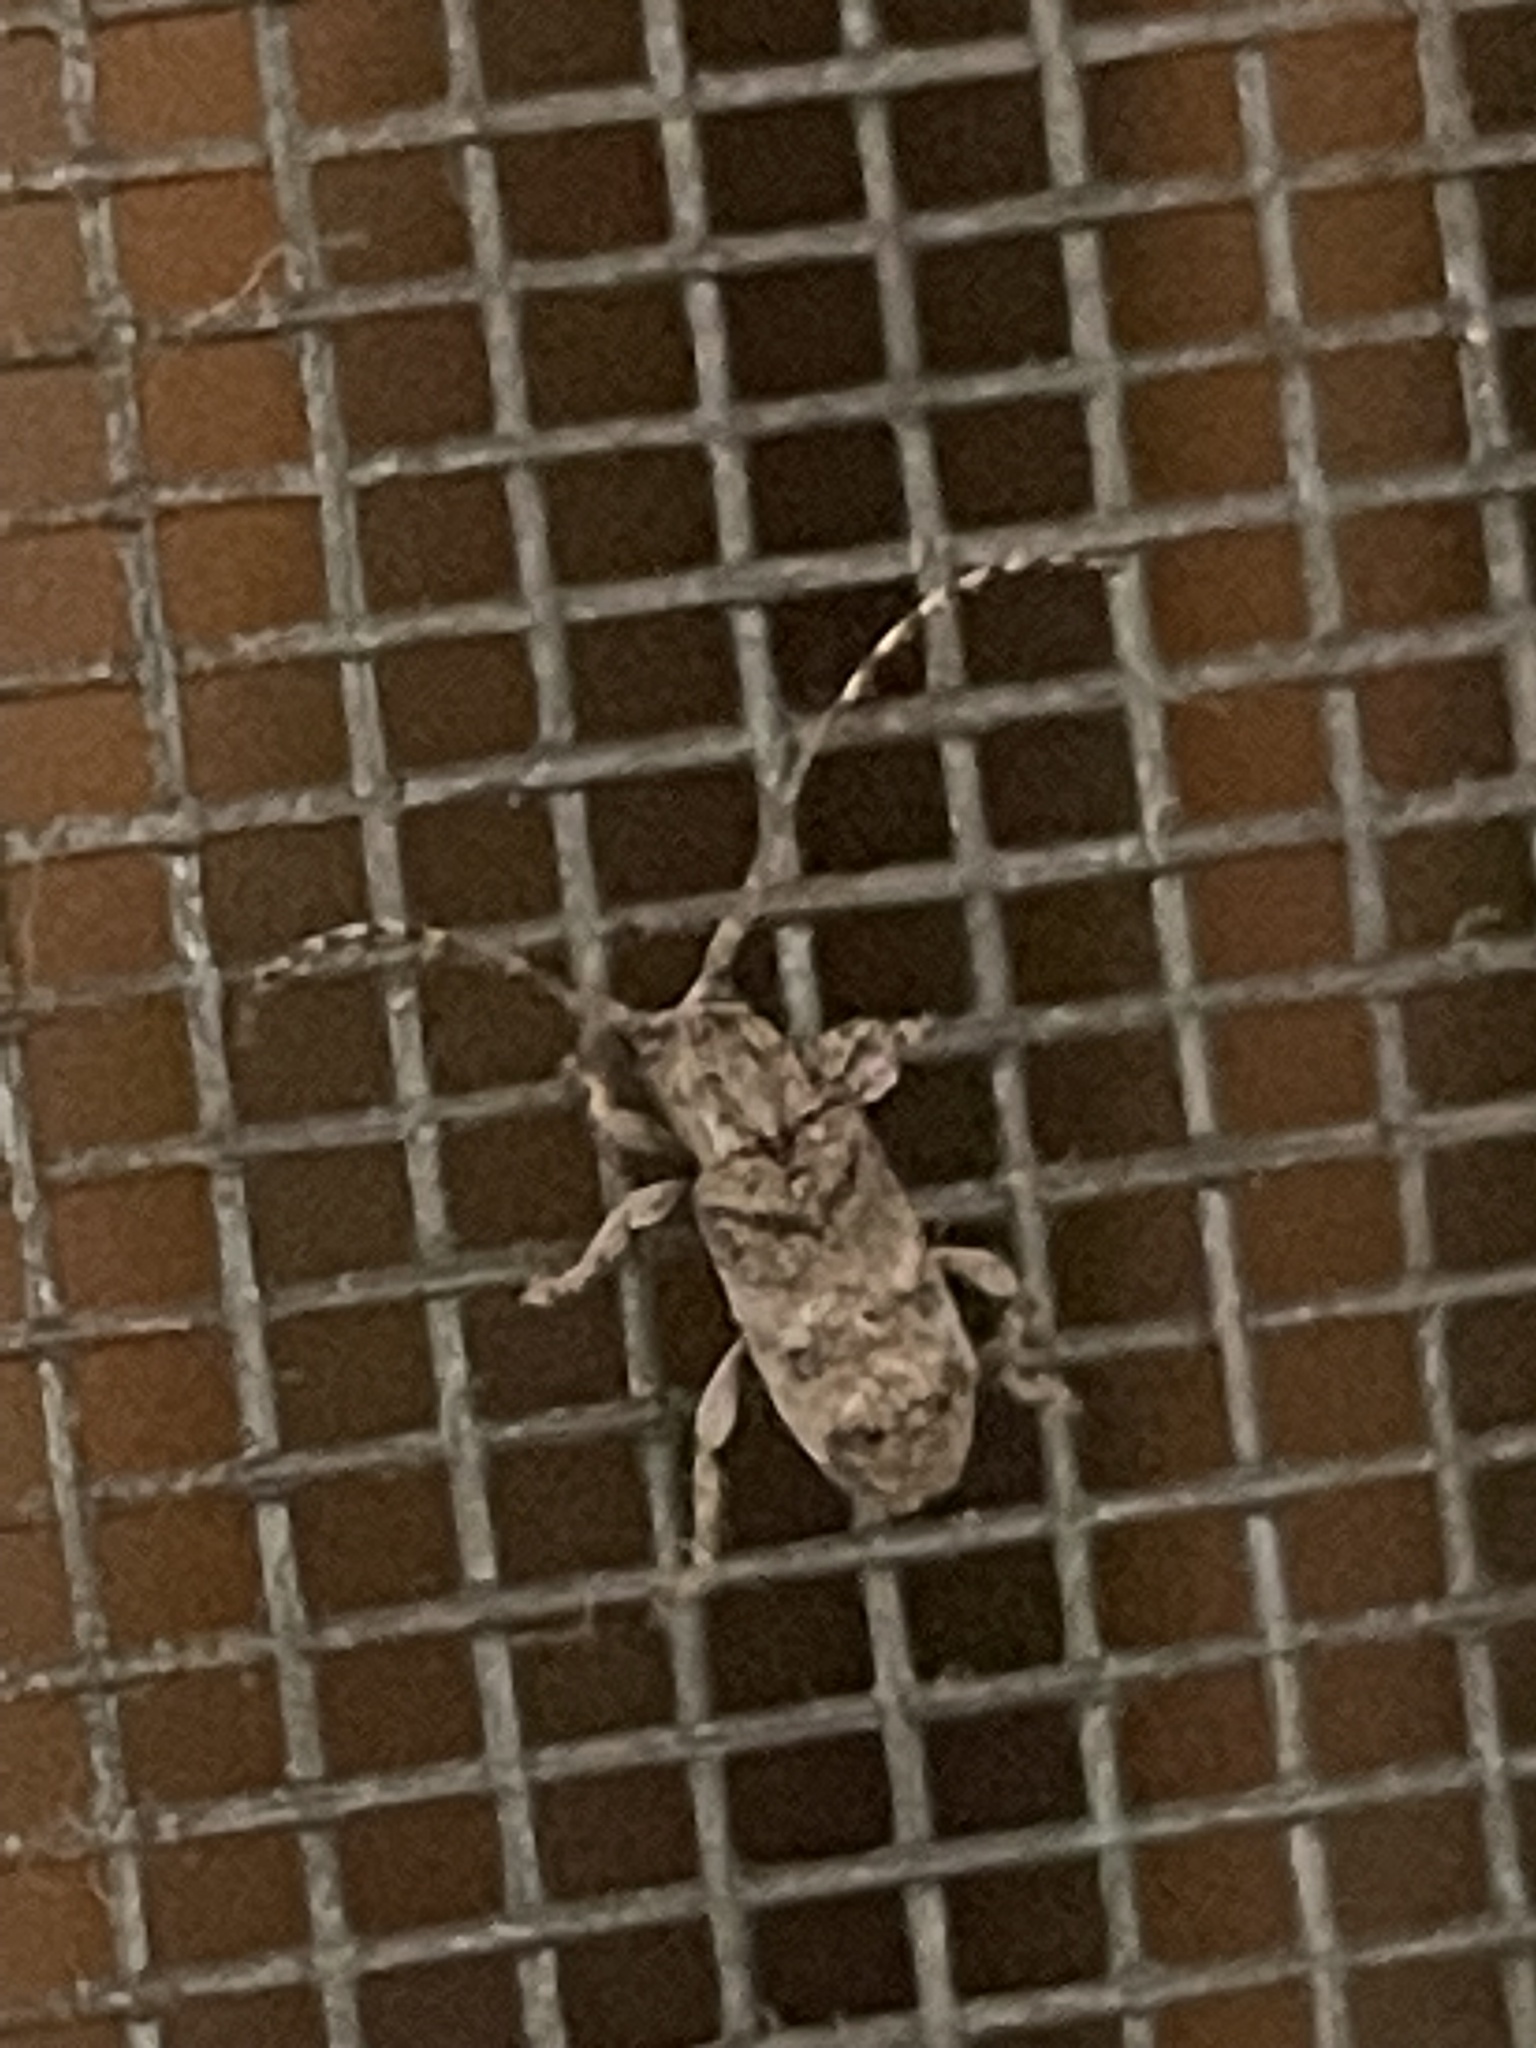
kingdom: Animalia
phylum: Arthropoda
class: Insecta
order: Coleoptera
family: Cerambycidae
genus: Ecyrus
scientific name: Ecyrus dasycerus
